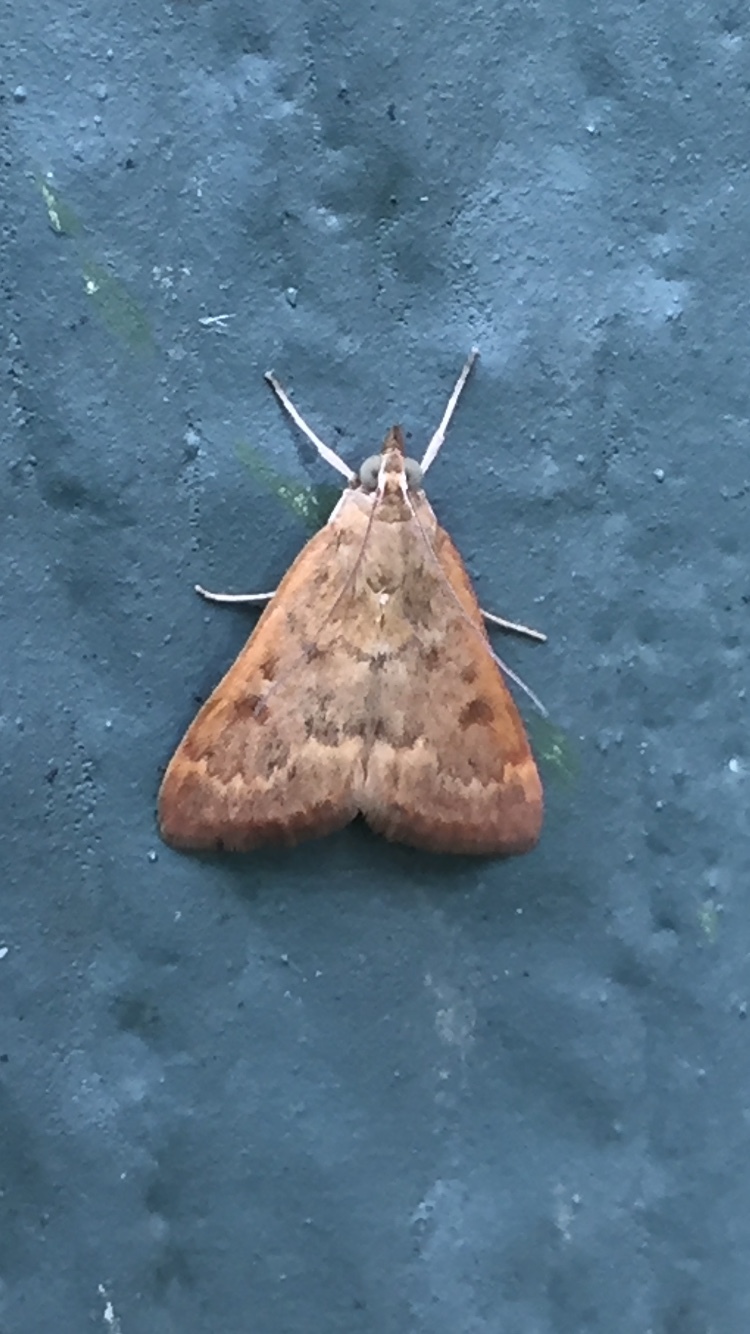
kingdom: Animalia
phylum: Arthropoda
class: Insecta
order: Lepidoptera
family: Crambidae
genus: Achyra
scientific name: Achyra rantalis
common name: Garden webworm
